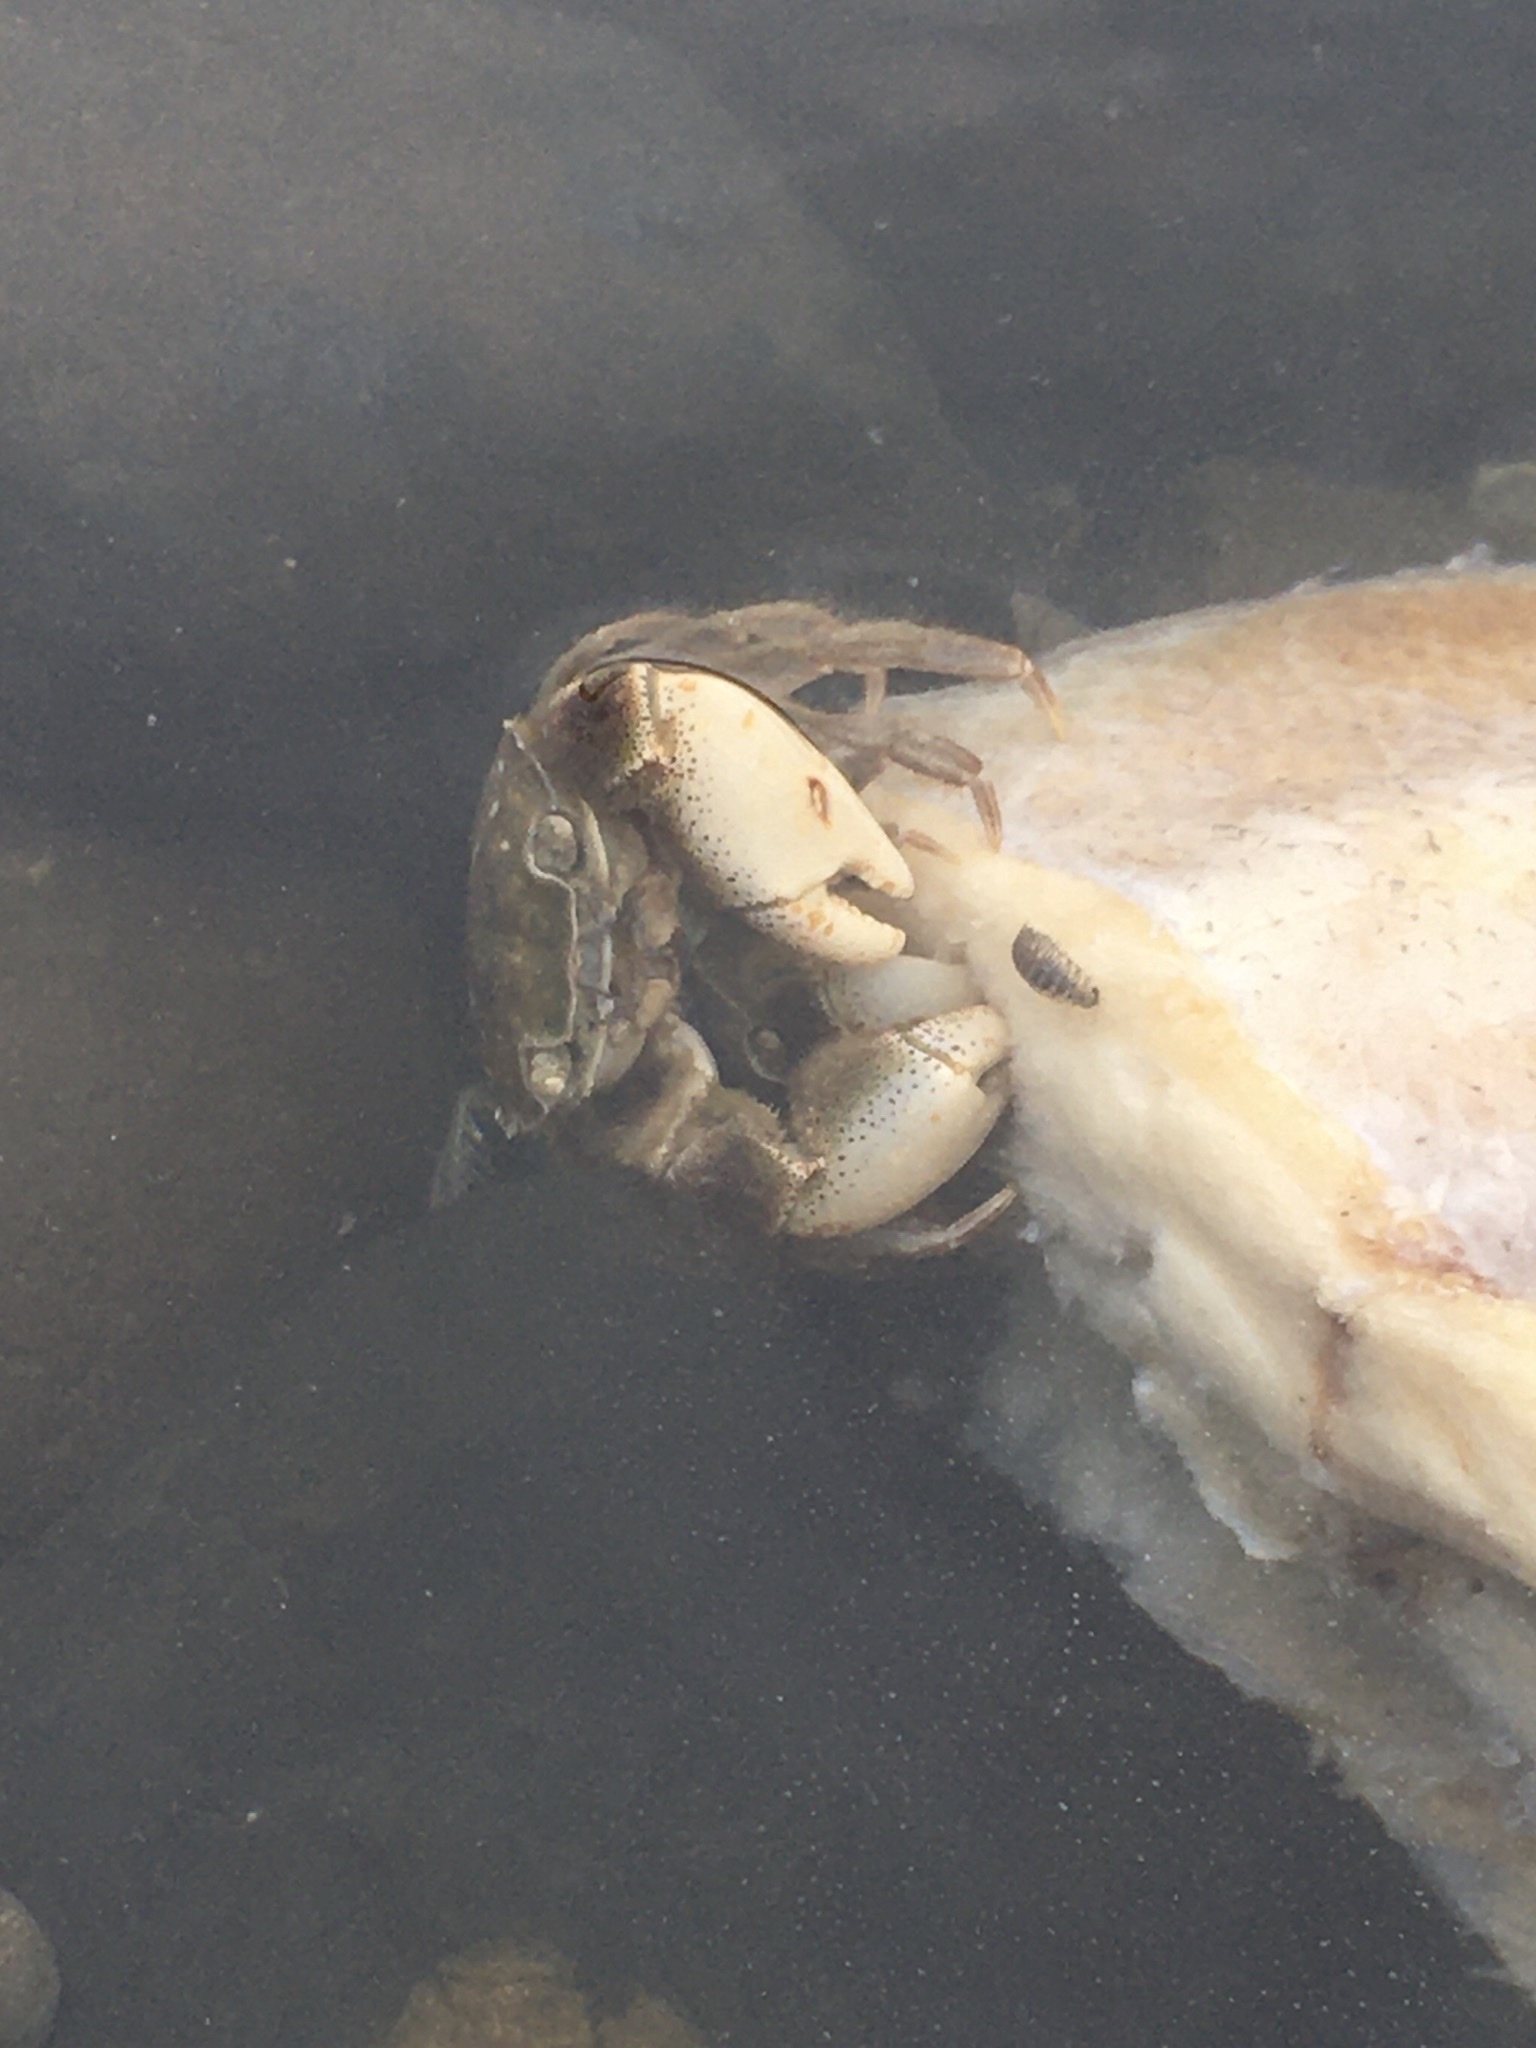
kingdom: Animalia
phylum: Arthropoda
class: Malacostraca
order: Decapoda
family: Varunidae
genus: Hemigrapsus
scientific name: Hemigrapsus crenulatus
